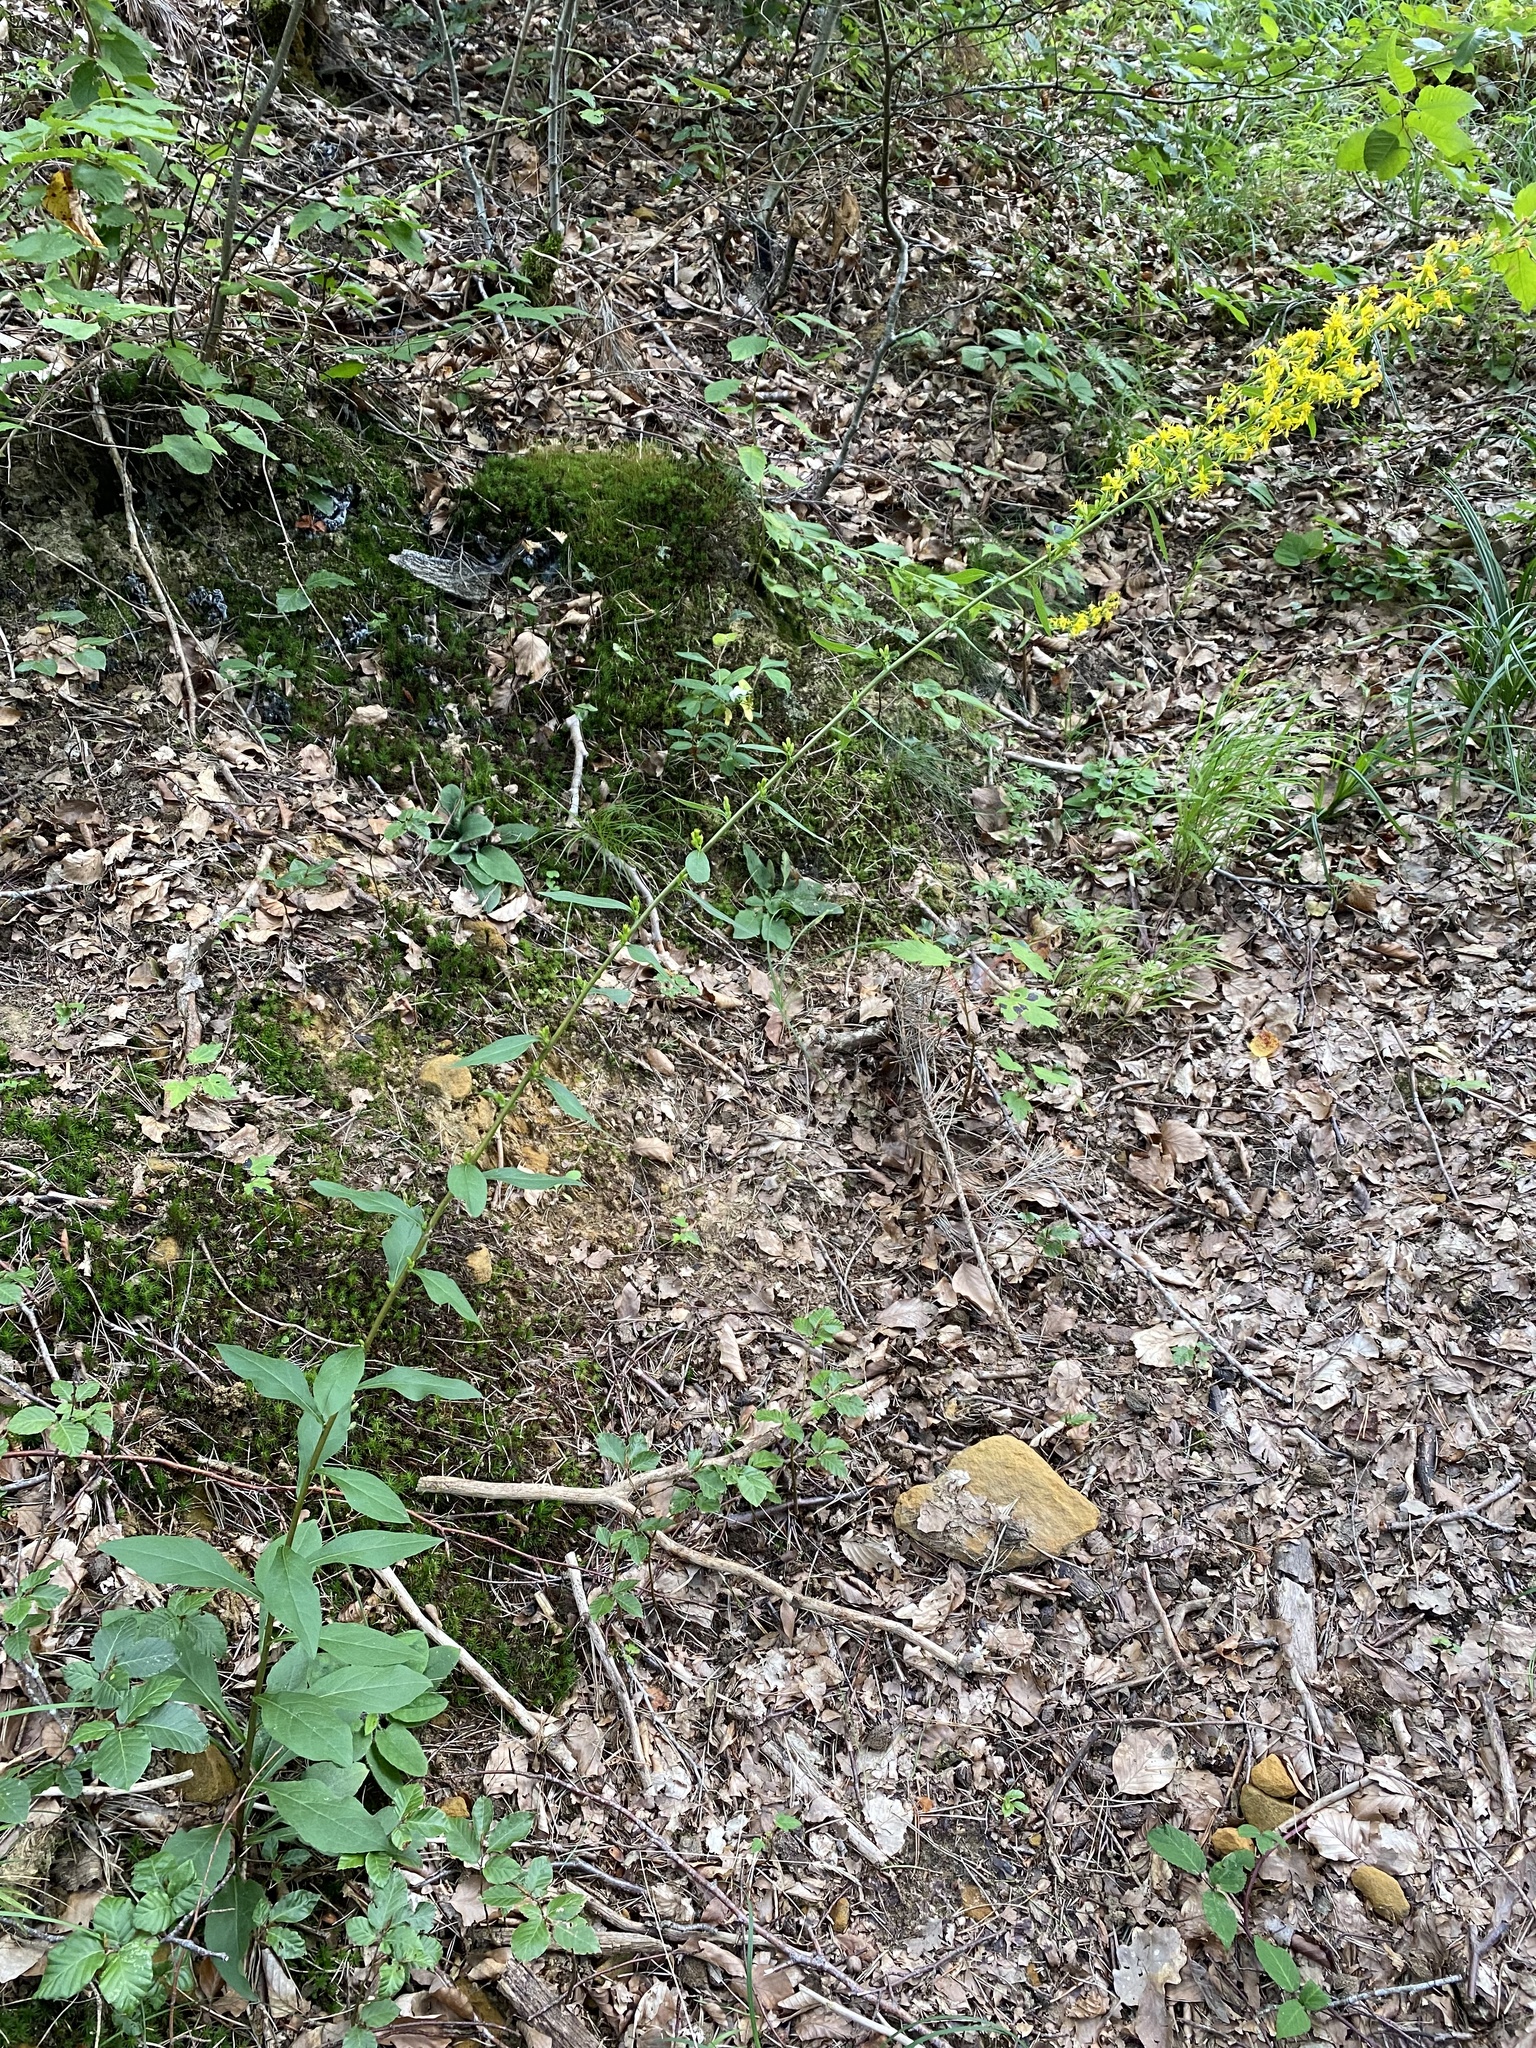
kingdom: Plantae
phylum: Tracheophyta
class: Magnoliopsida
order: Asterales
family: Asteraceae
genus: Solidago
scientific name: Solidago virgaurea
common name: Goldenrod
